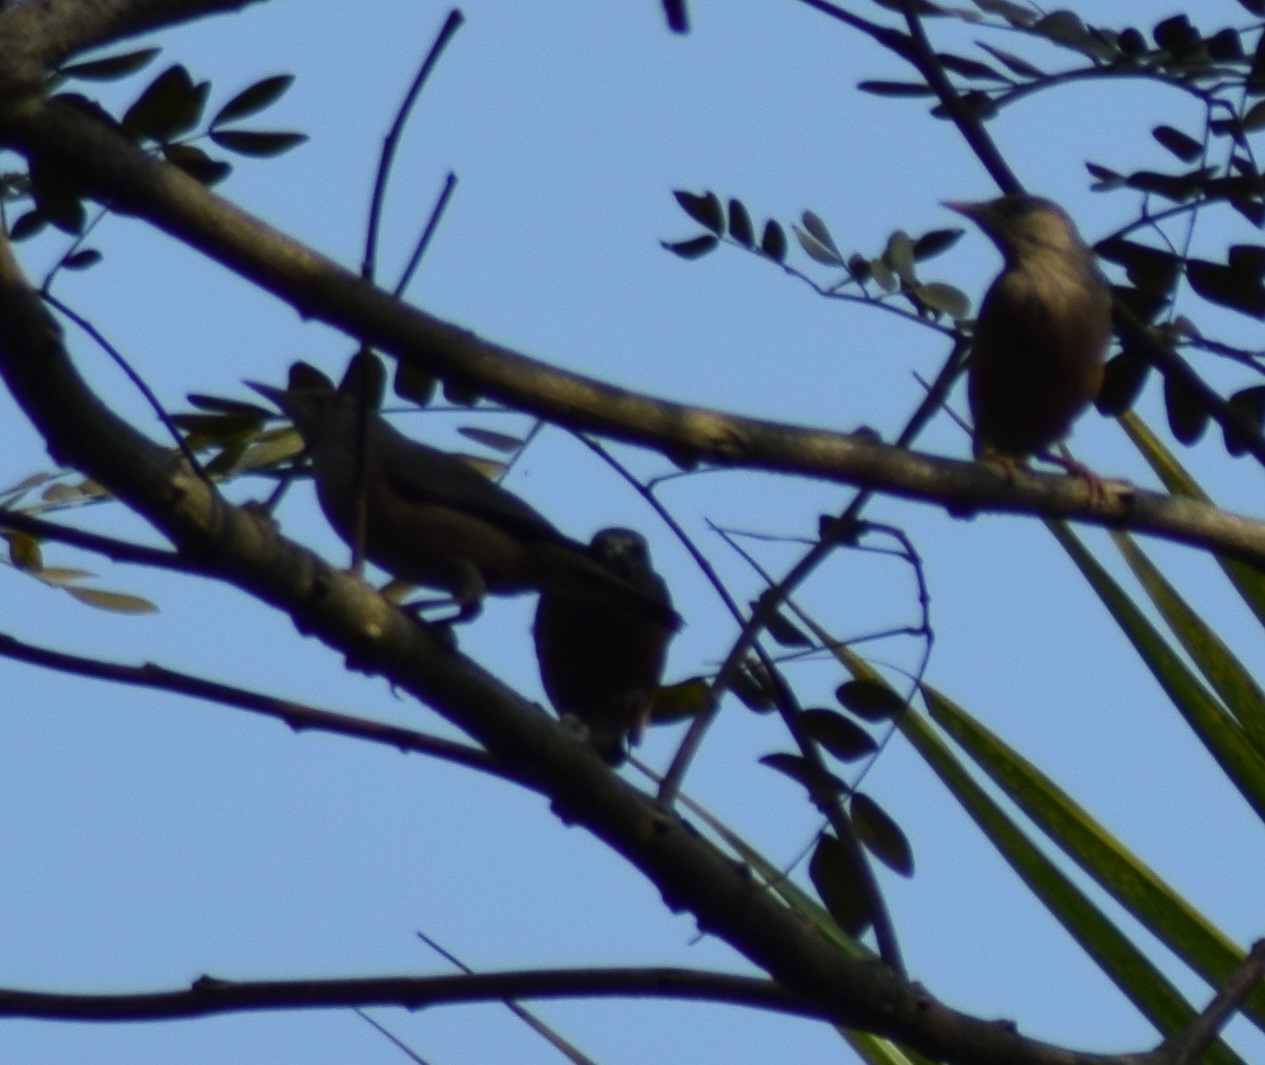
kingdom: Animalia
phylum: Chordata
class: Aves
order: Passeriformes
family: Sturnidae
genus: Sturnia
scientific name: Sturnia malabarica
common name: Chestnut-tailed starling
